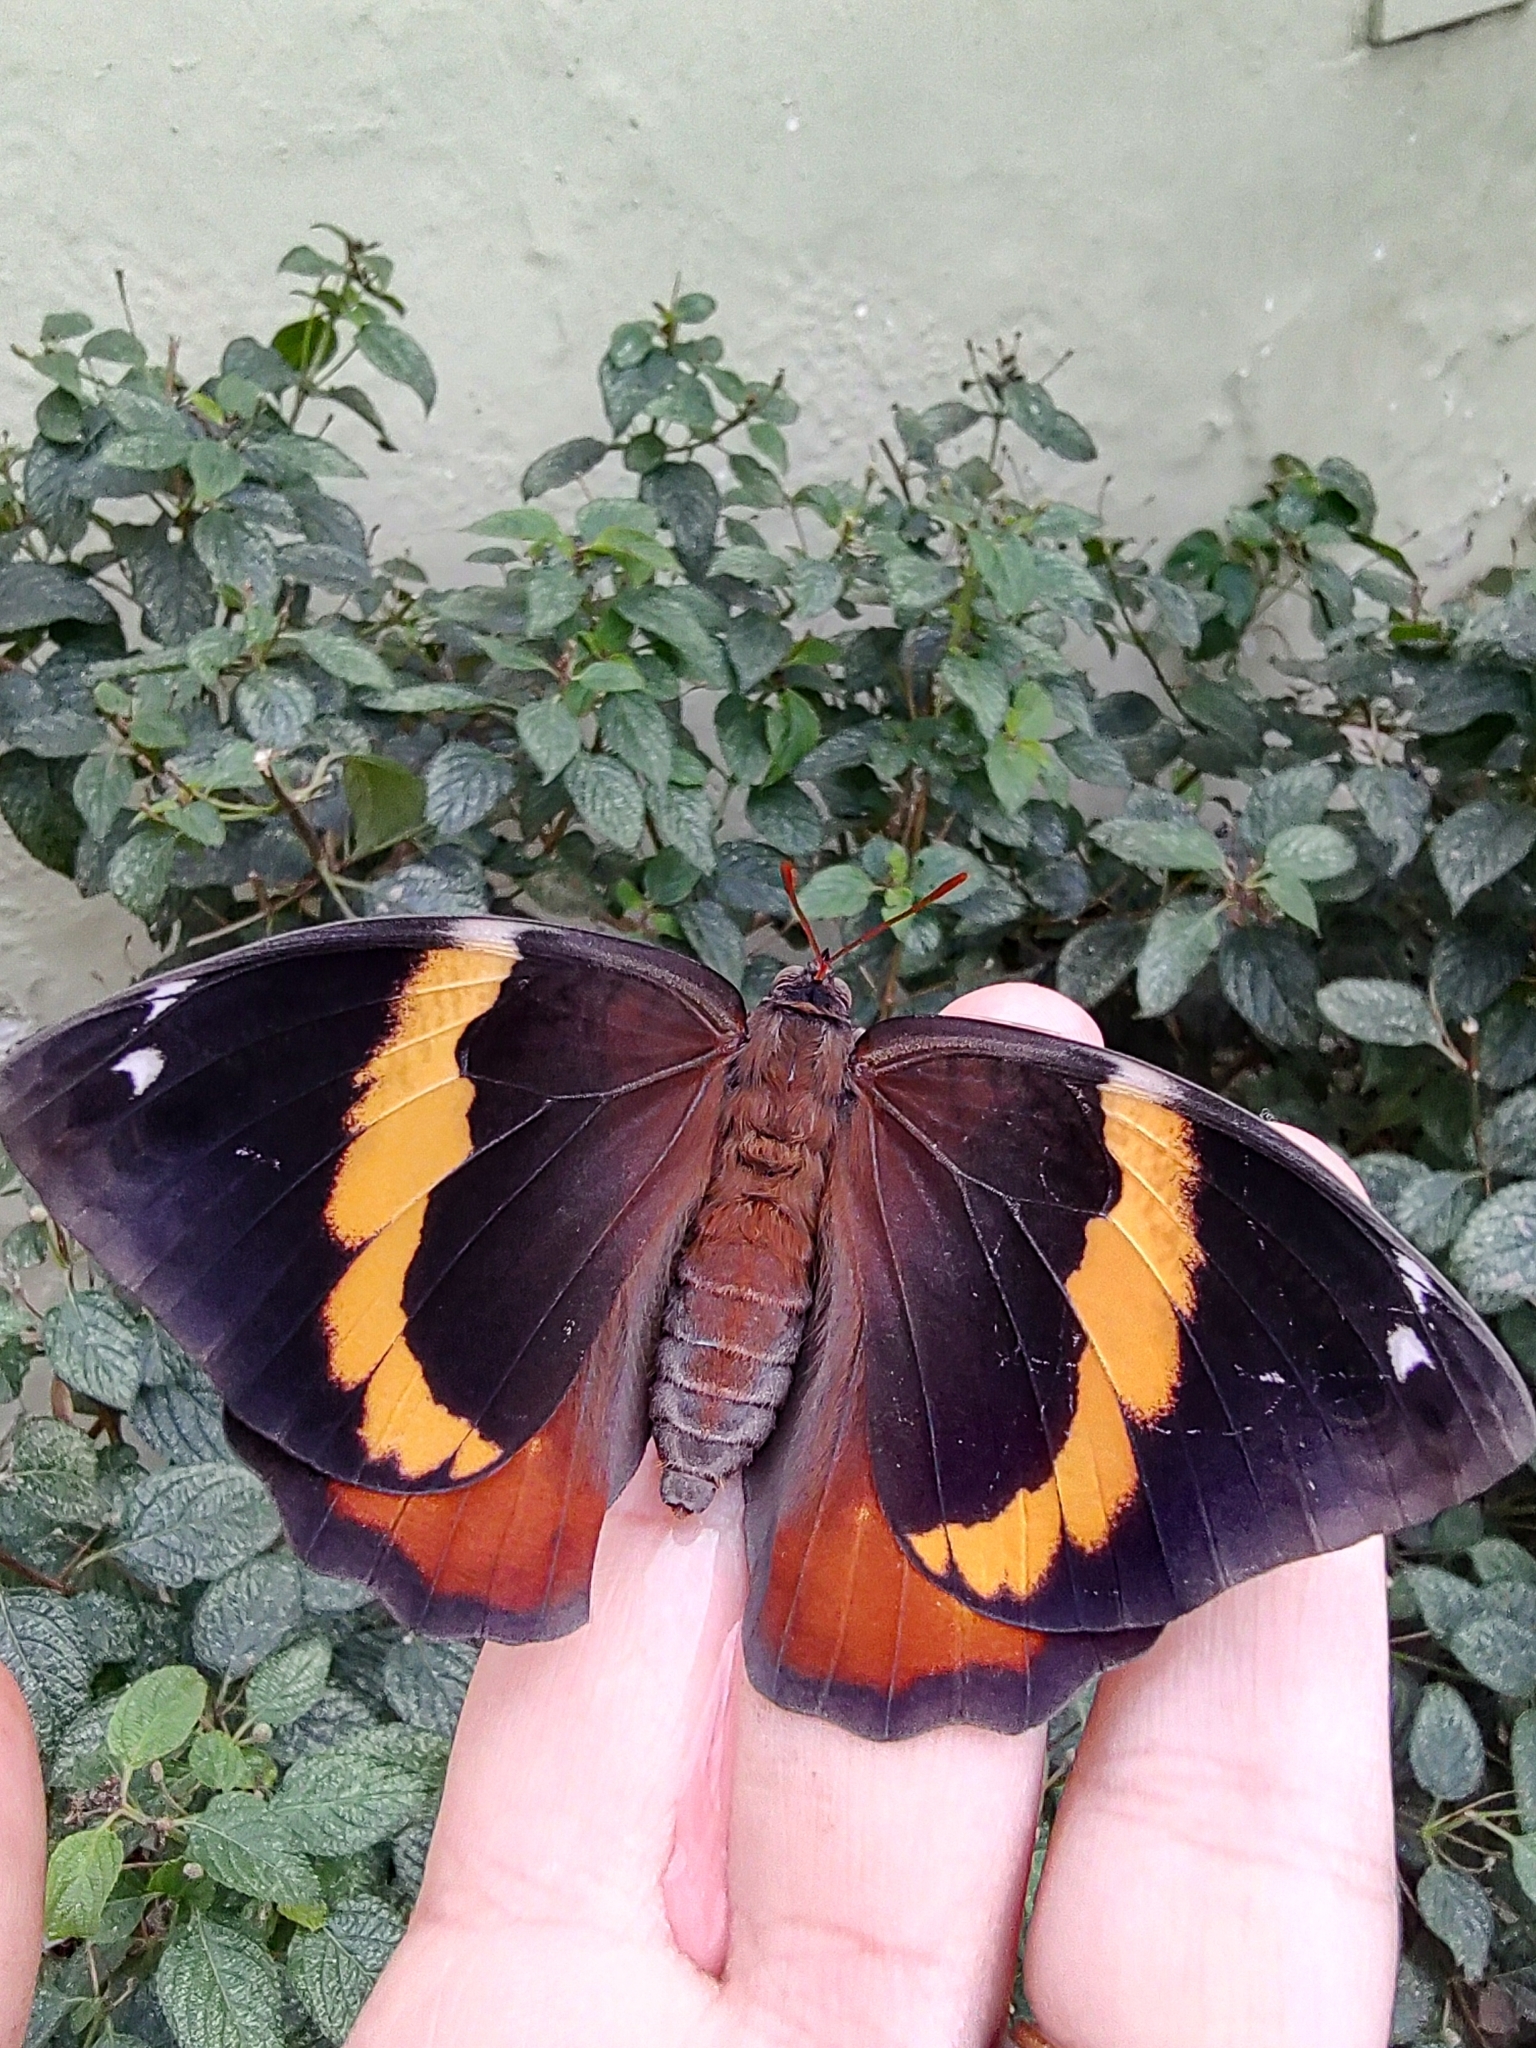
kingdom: Animalia
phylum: Arthropoda
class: Insecta
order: Lepidoptera
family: Nymphalidae
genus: Opsiphanes
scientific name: Opsiphanes invirae
